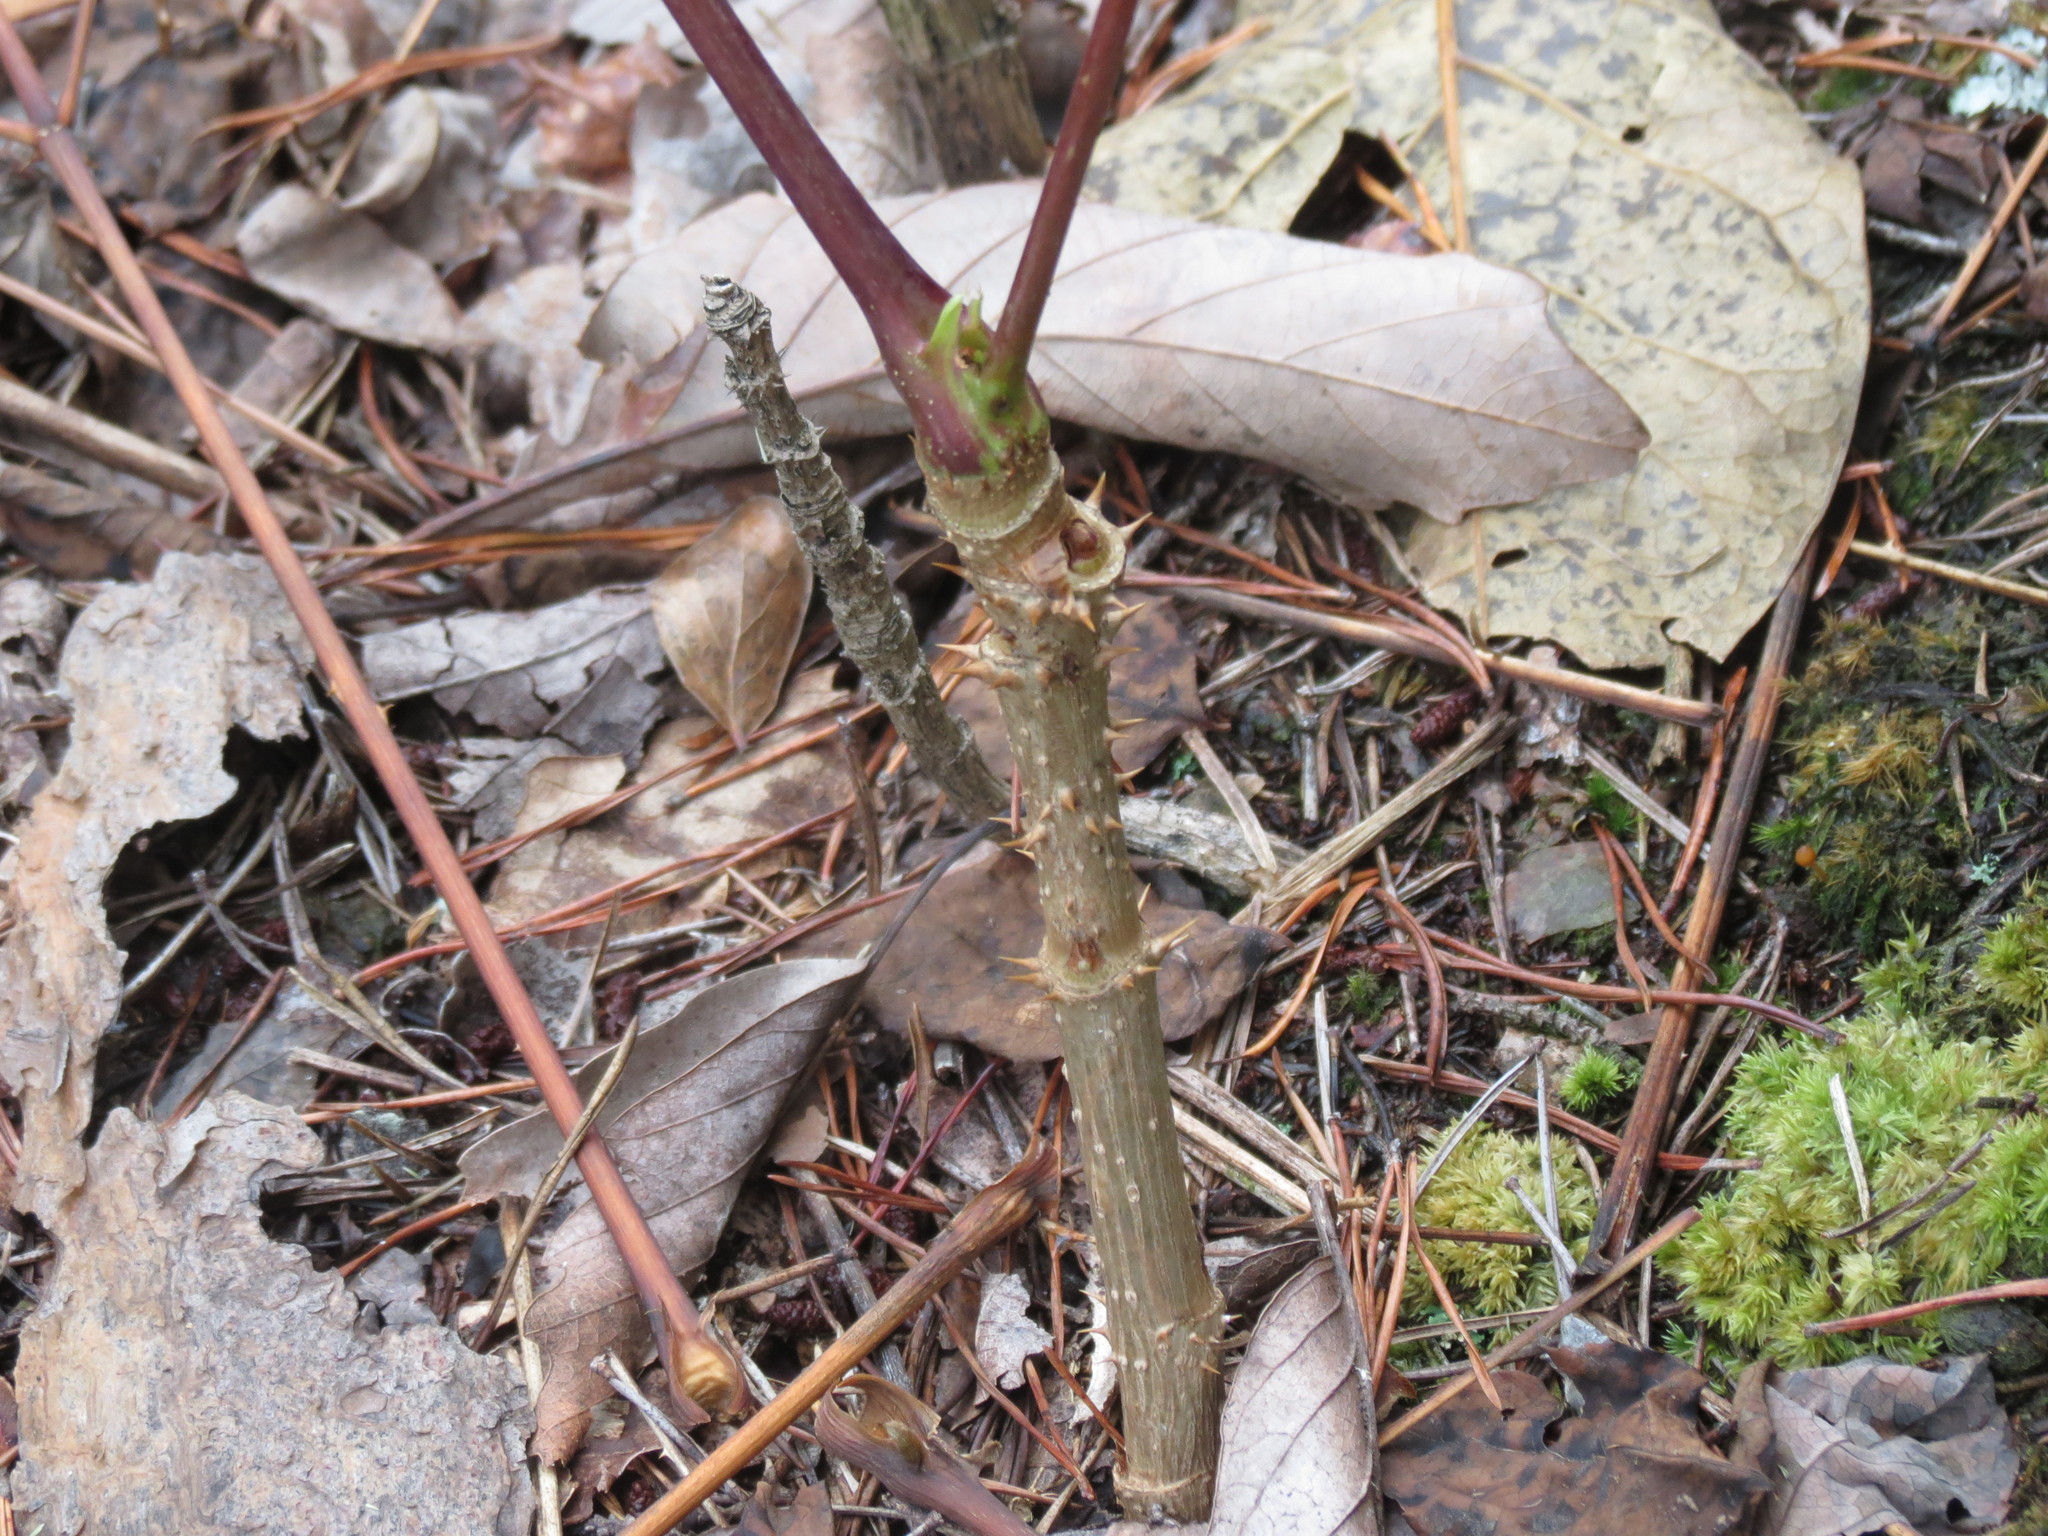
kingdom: Plantae
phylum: Tracheophyta
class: Magnoliopsida
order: Apiales
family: Araliaceae
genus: Aralia
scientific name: Aralia spinosa
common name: Hercules'-club
